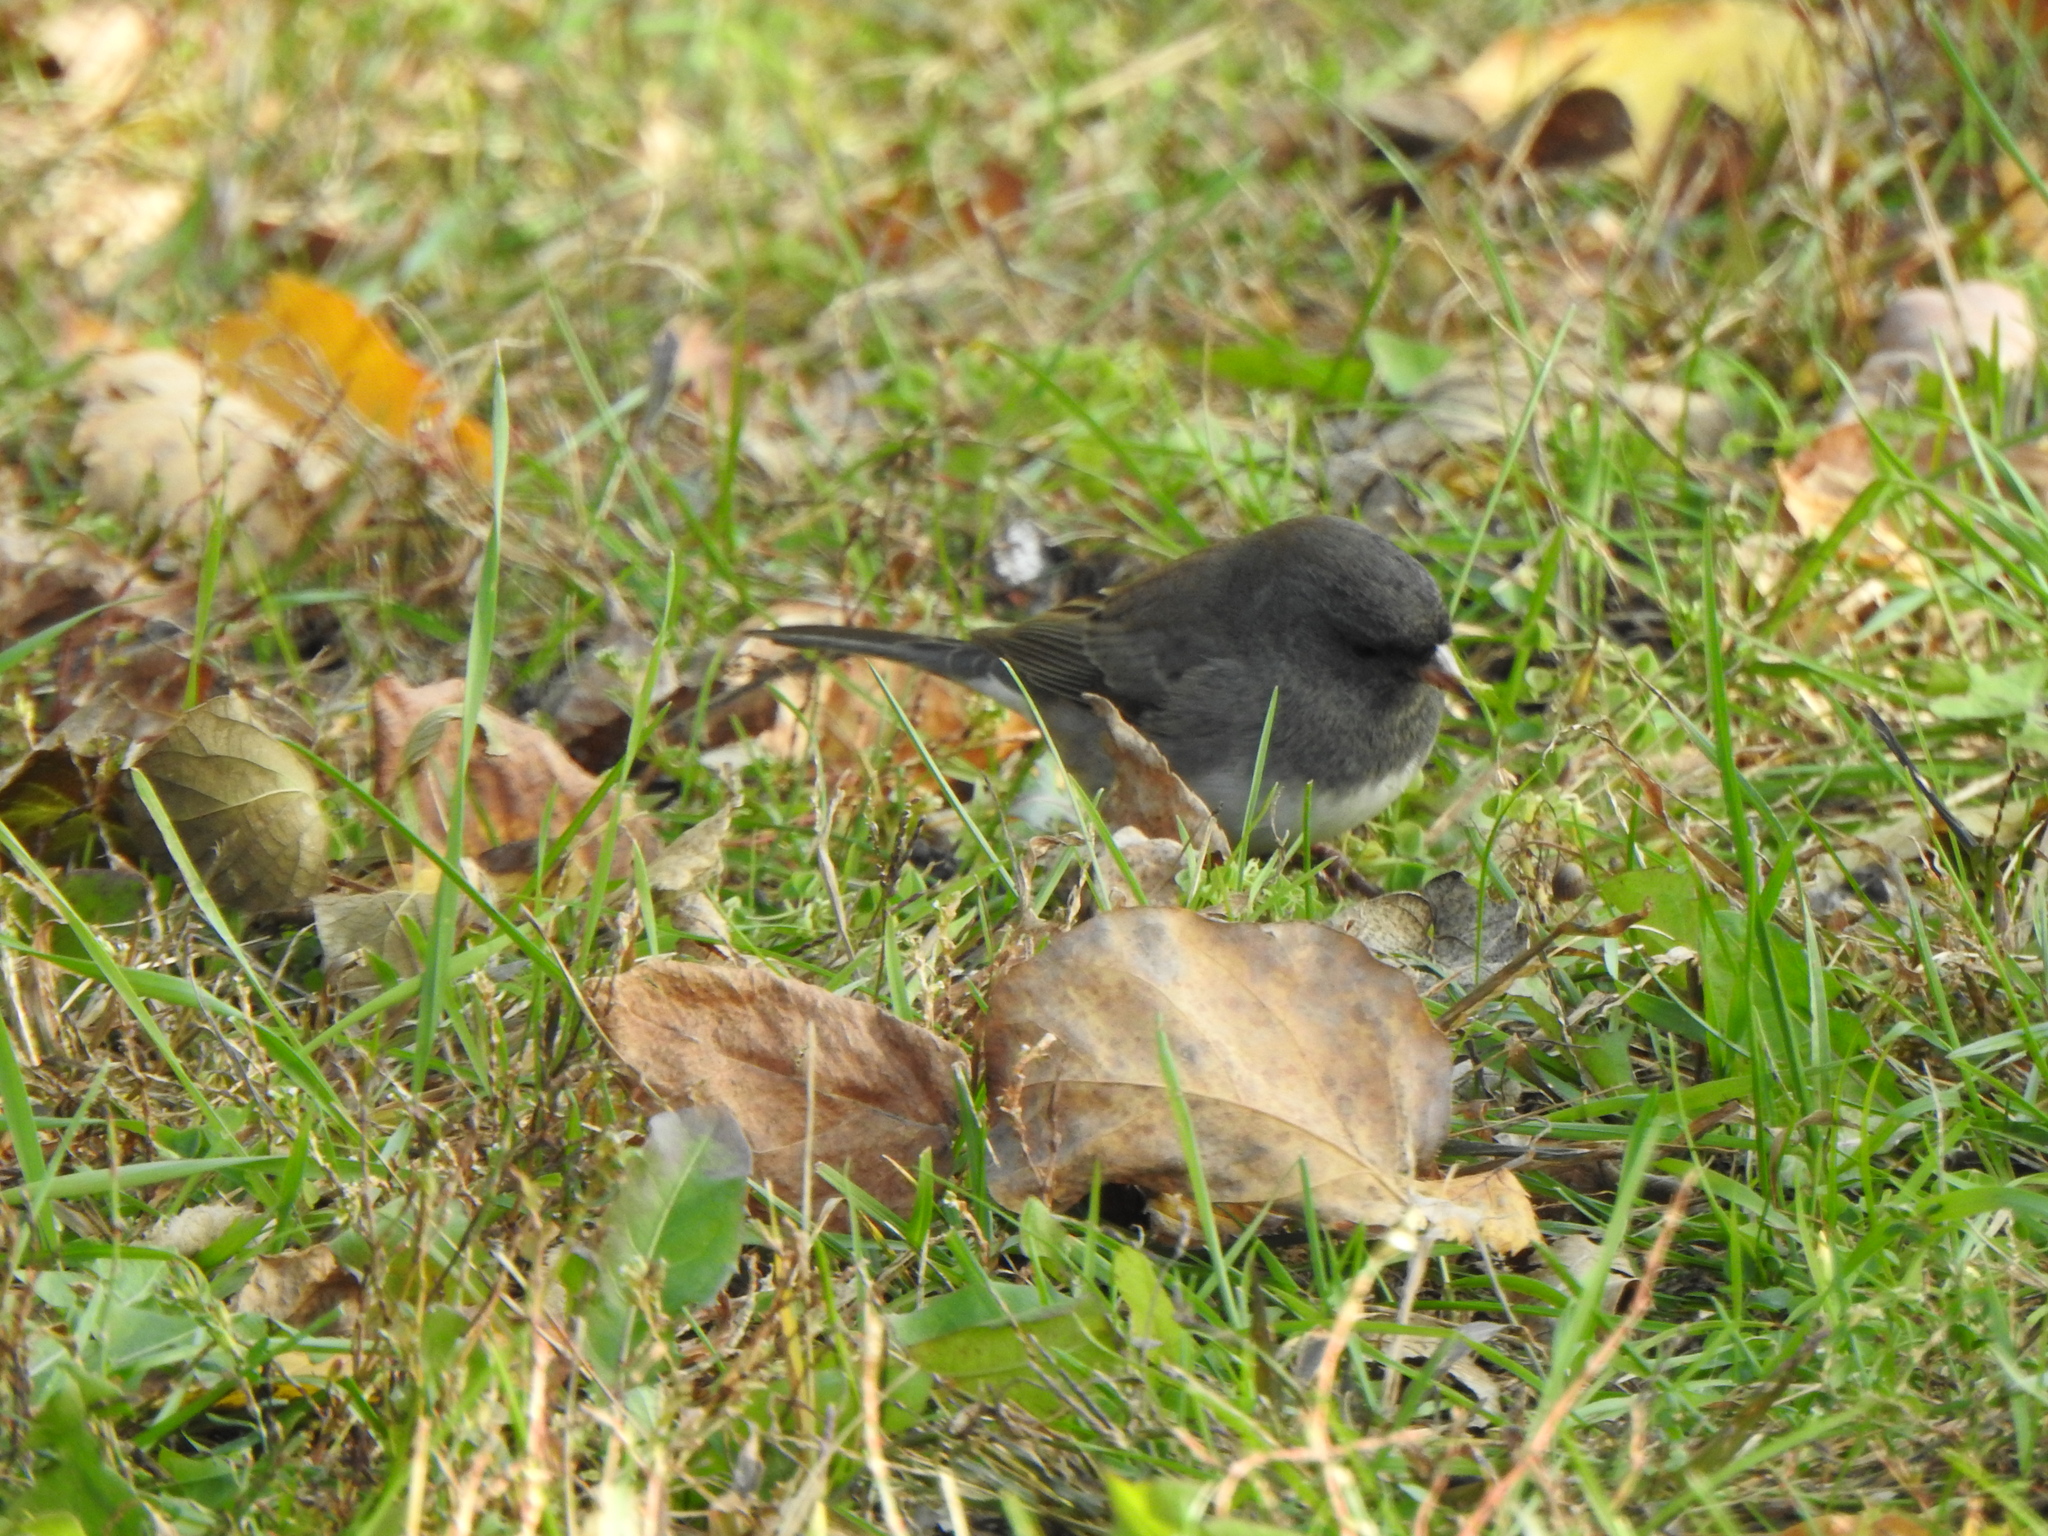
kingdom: Animalia
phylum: Chordata
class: Aves
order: Passeriformes
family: Passerellidae
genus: Junco
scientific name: Junco hyemalis
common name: Dark-eyed junco
